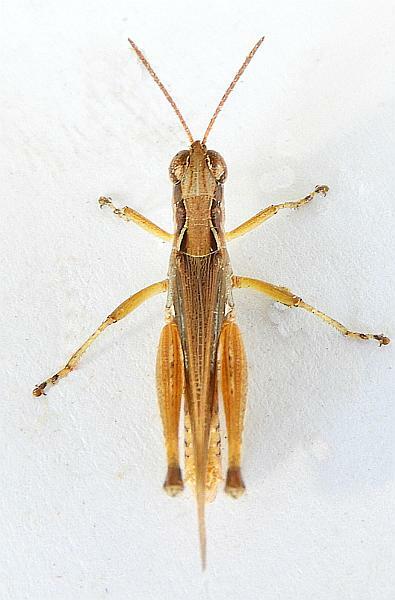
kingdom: Animalia
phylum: Arthropoda
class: Insecta
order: Orthoptera
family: Acrididae
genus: Orphulella
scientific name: Orphulella pelidna
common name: Spotted-wing grasshopper
